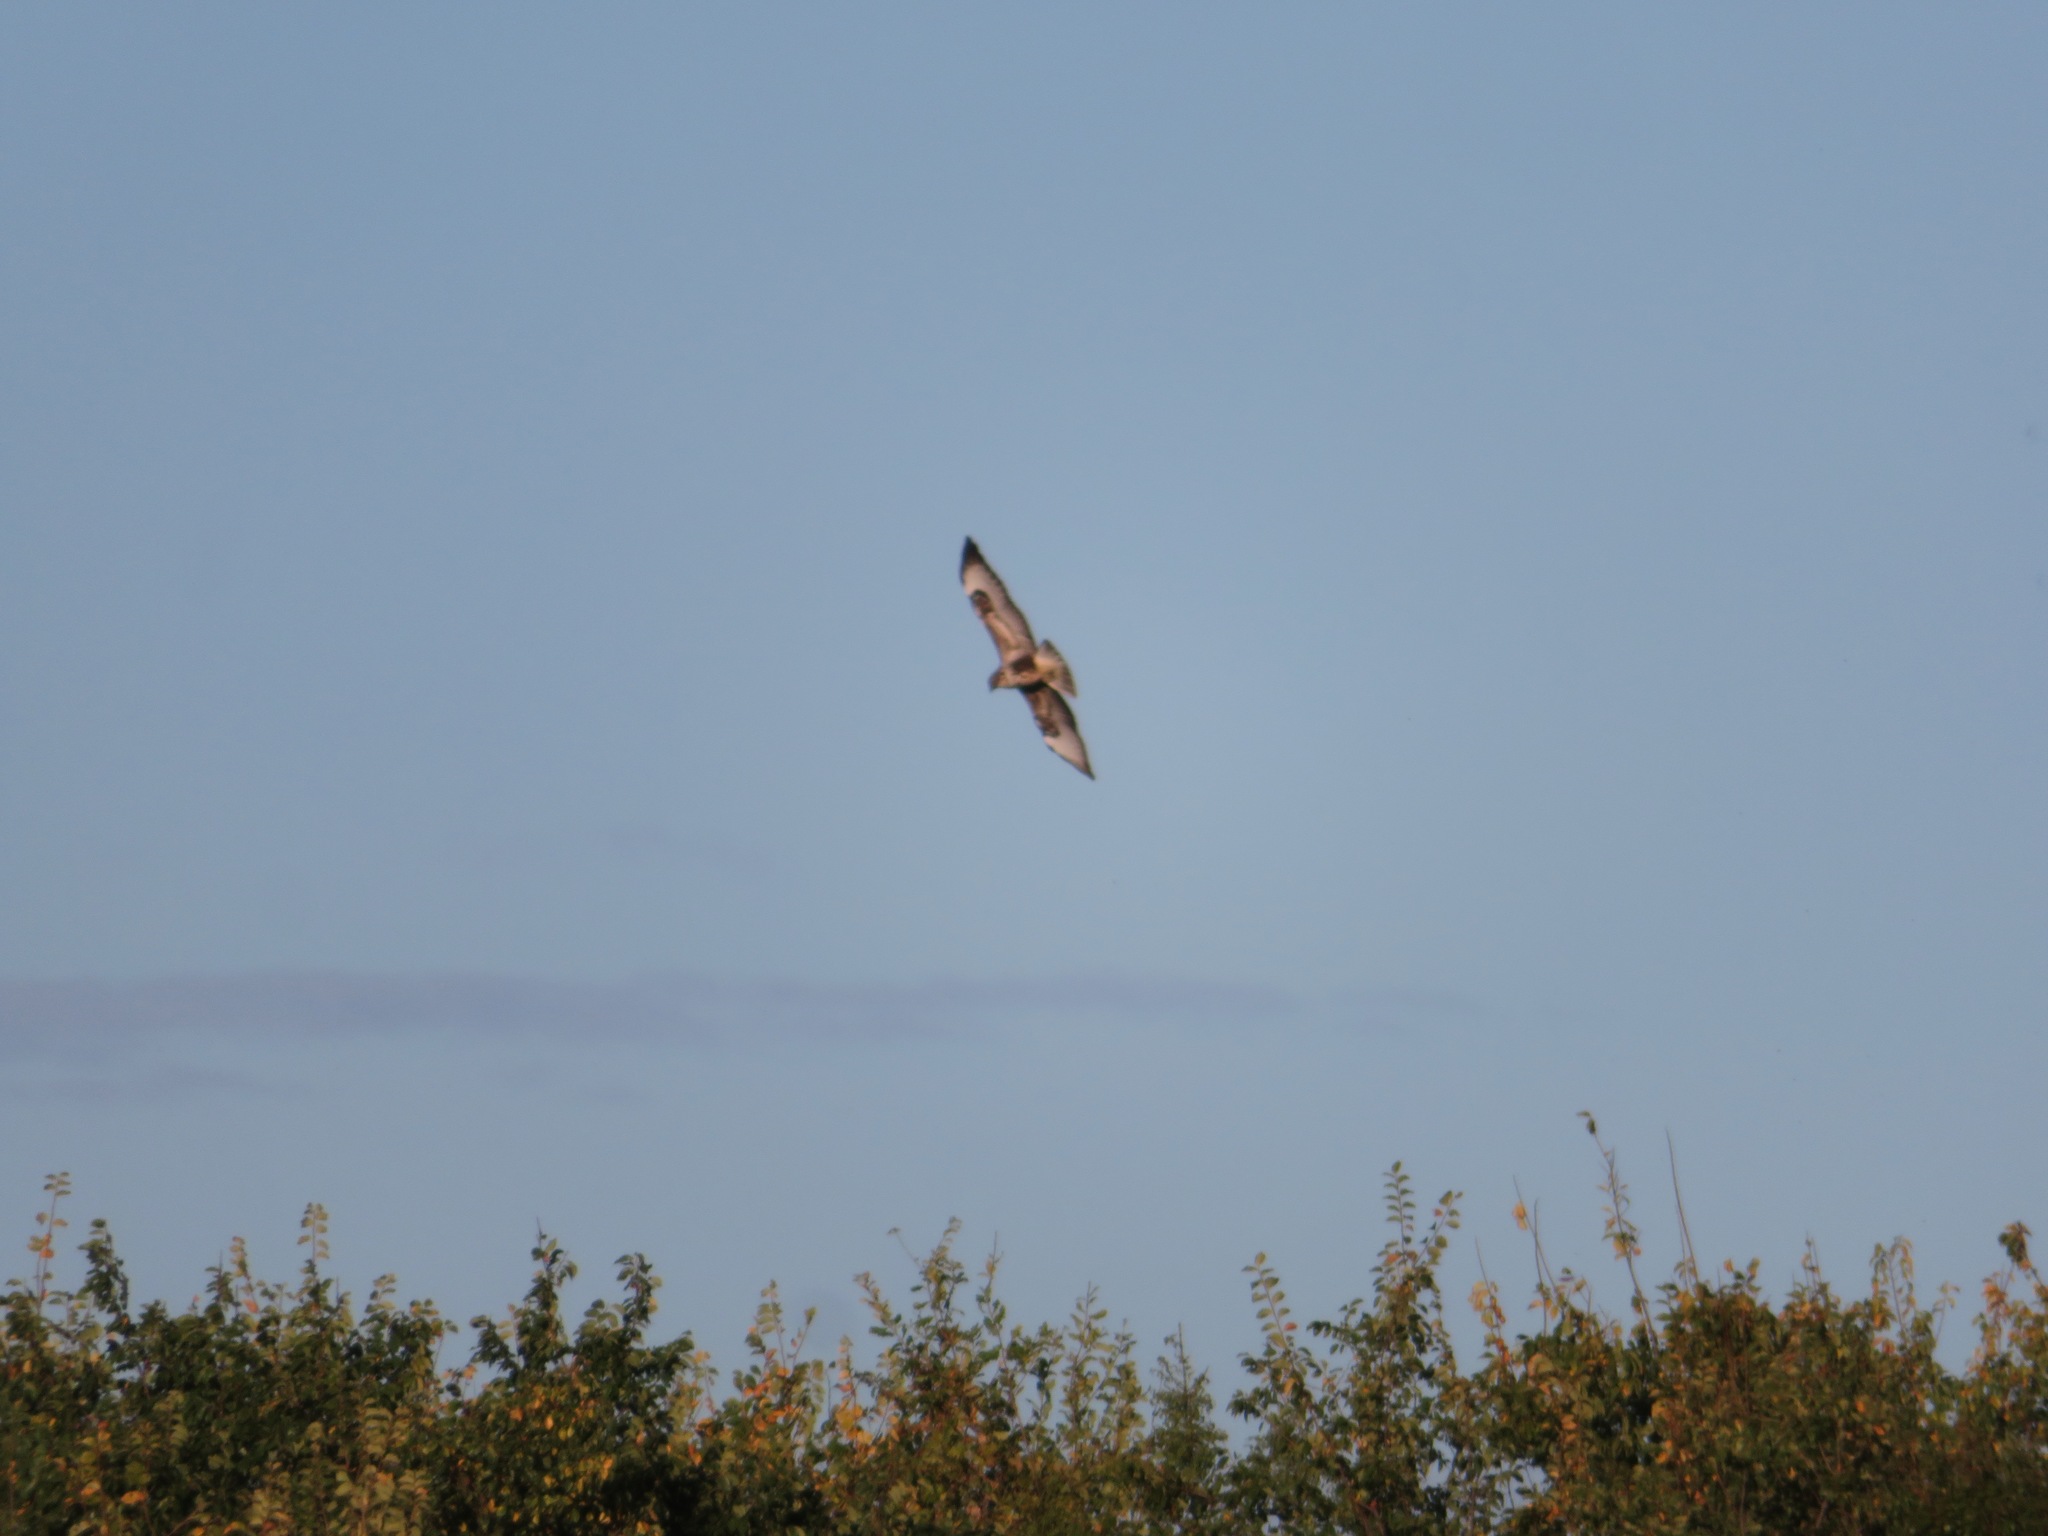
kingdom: Animalia
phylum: Chordata
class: Aves
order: Accipitriformes
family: Accipitridae
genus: Buteo
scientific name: Buteo buteo
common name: Common buzzard
